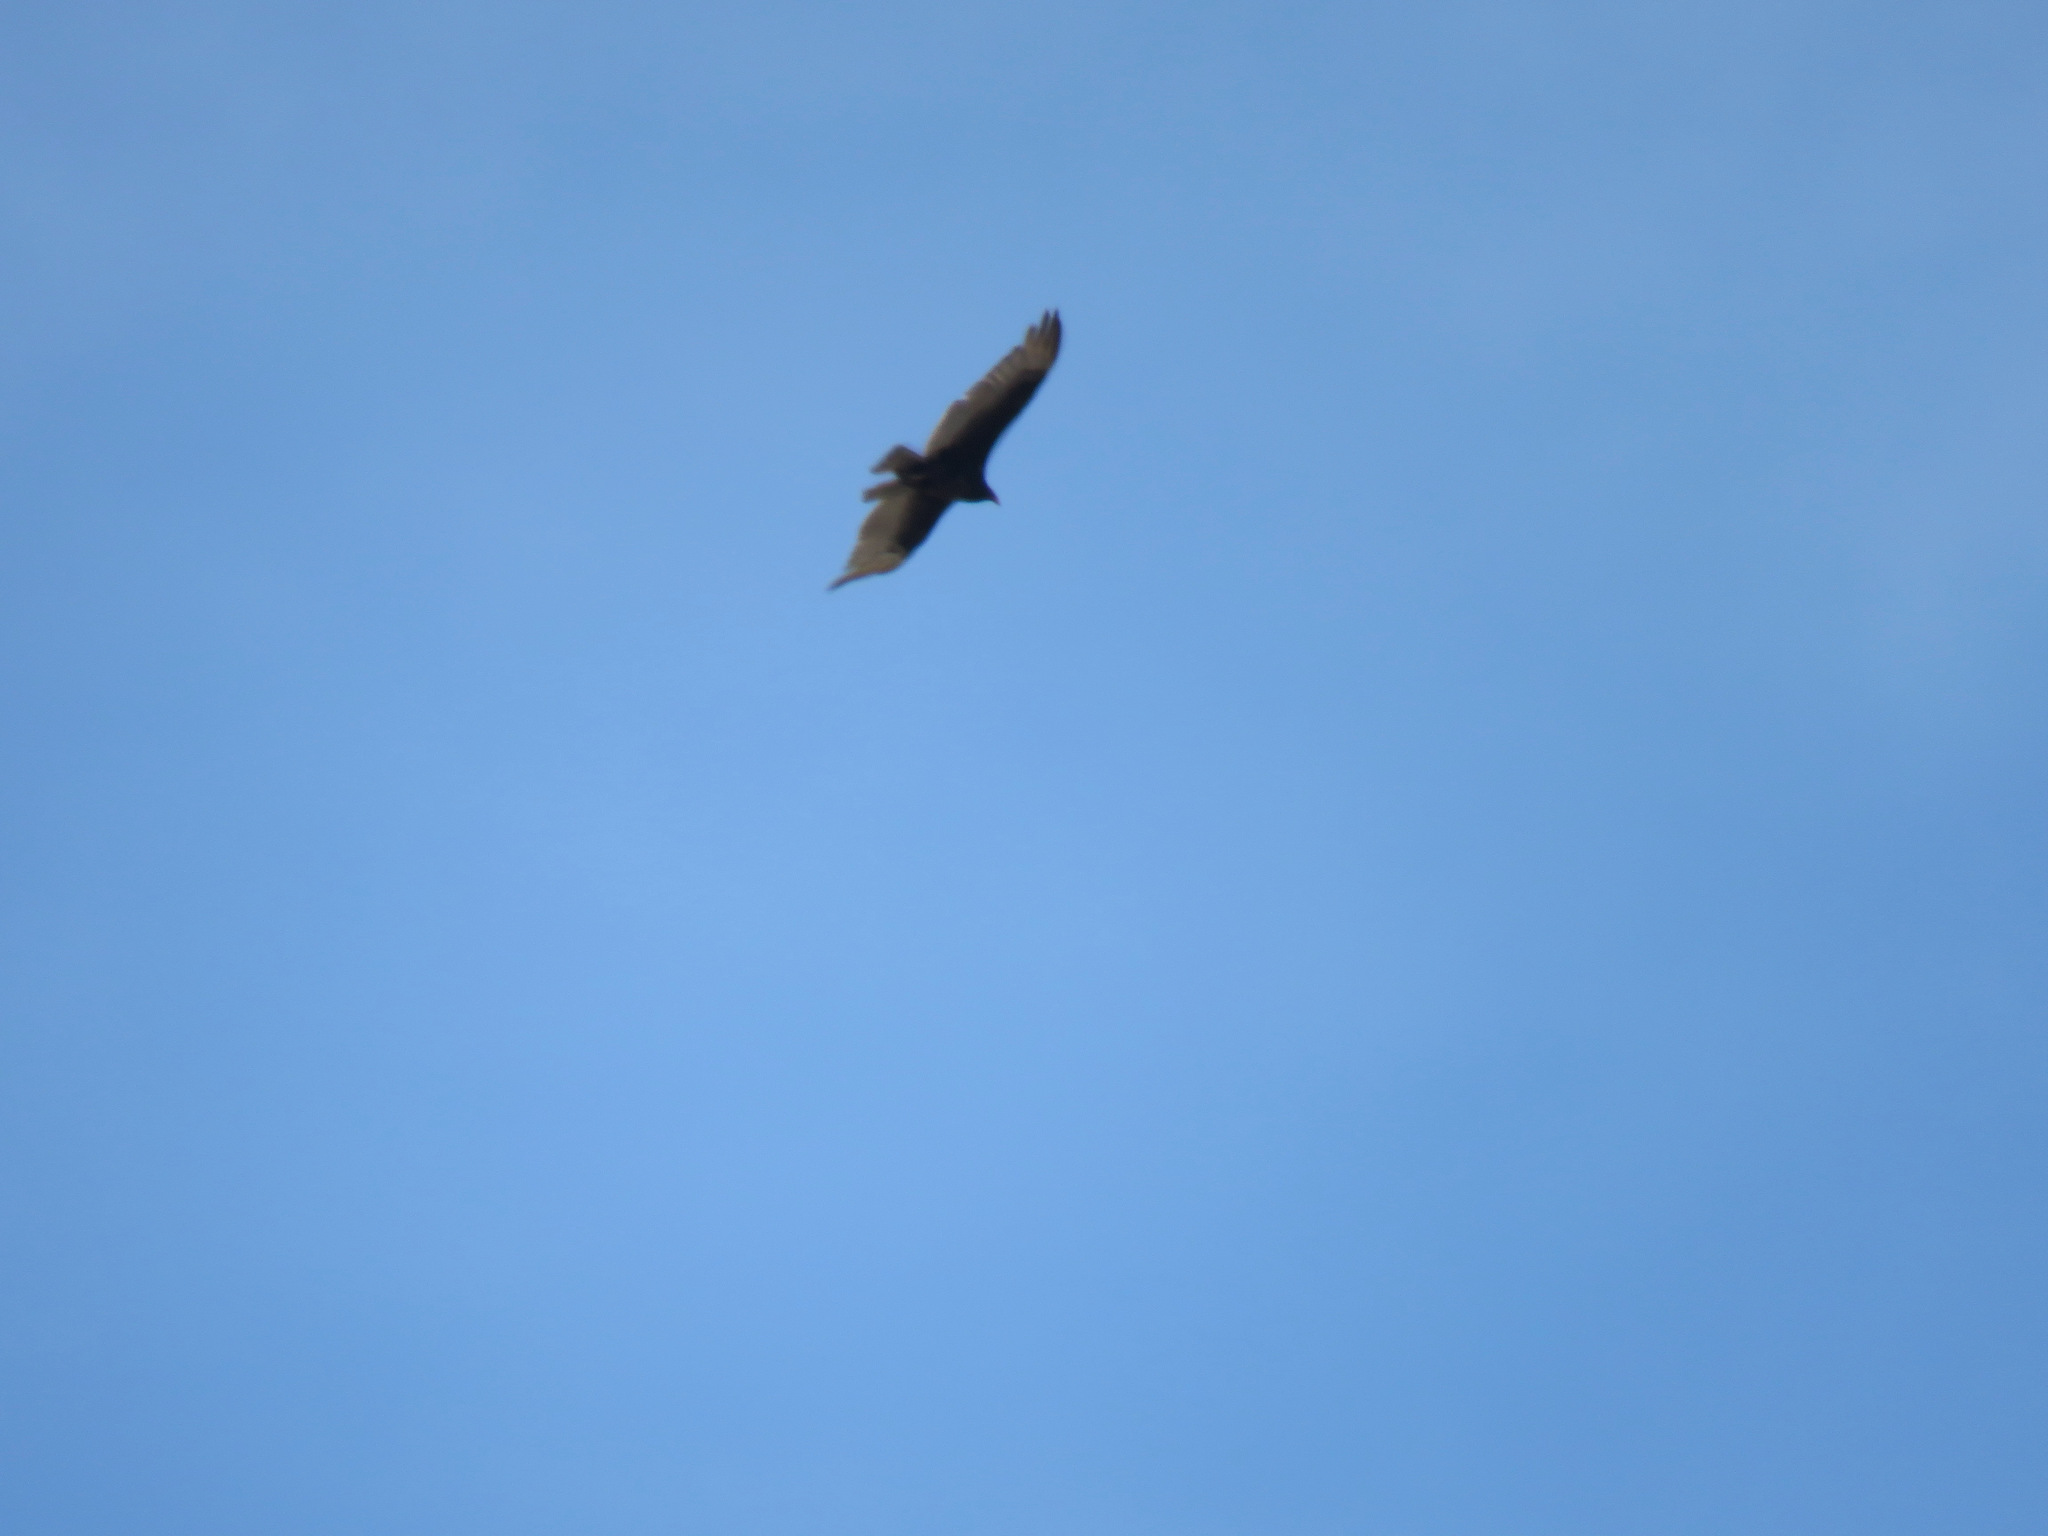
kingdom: Animalia
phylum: Chordata
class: Aves
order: Accipitriformes
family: Cathartidae
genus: Cathartes
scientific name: Cathartes aura
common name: Turkey vulture
